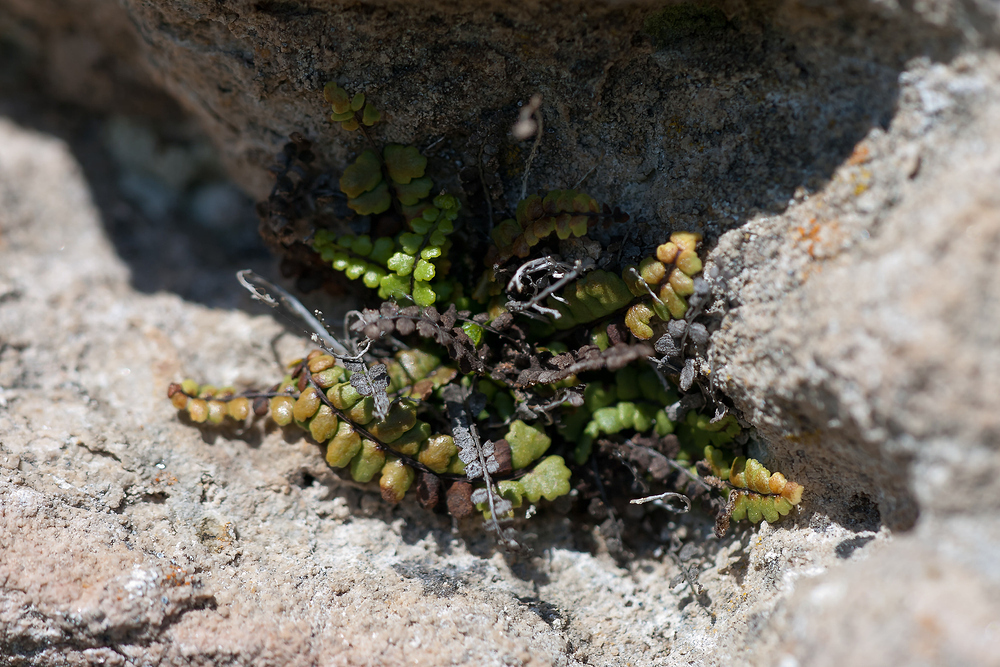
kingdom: Plantae
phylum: Tracheophyta
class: Polypodiopsida
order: Polypodiales
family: Aspleniaceae
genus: Asplenium
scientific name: Asplenium trichomanes
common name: Maidenhair spleenwort
